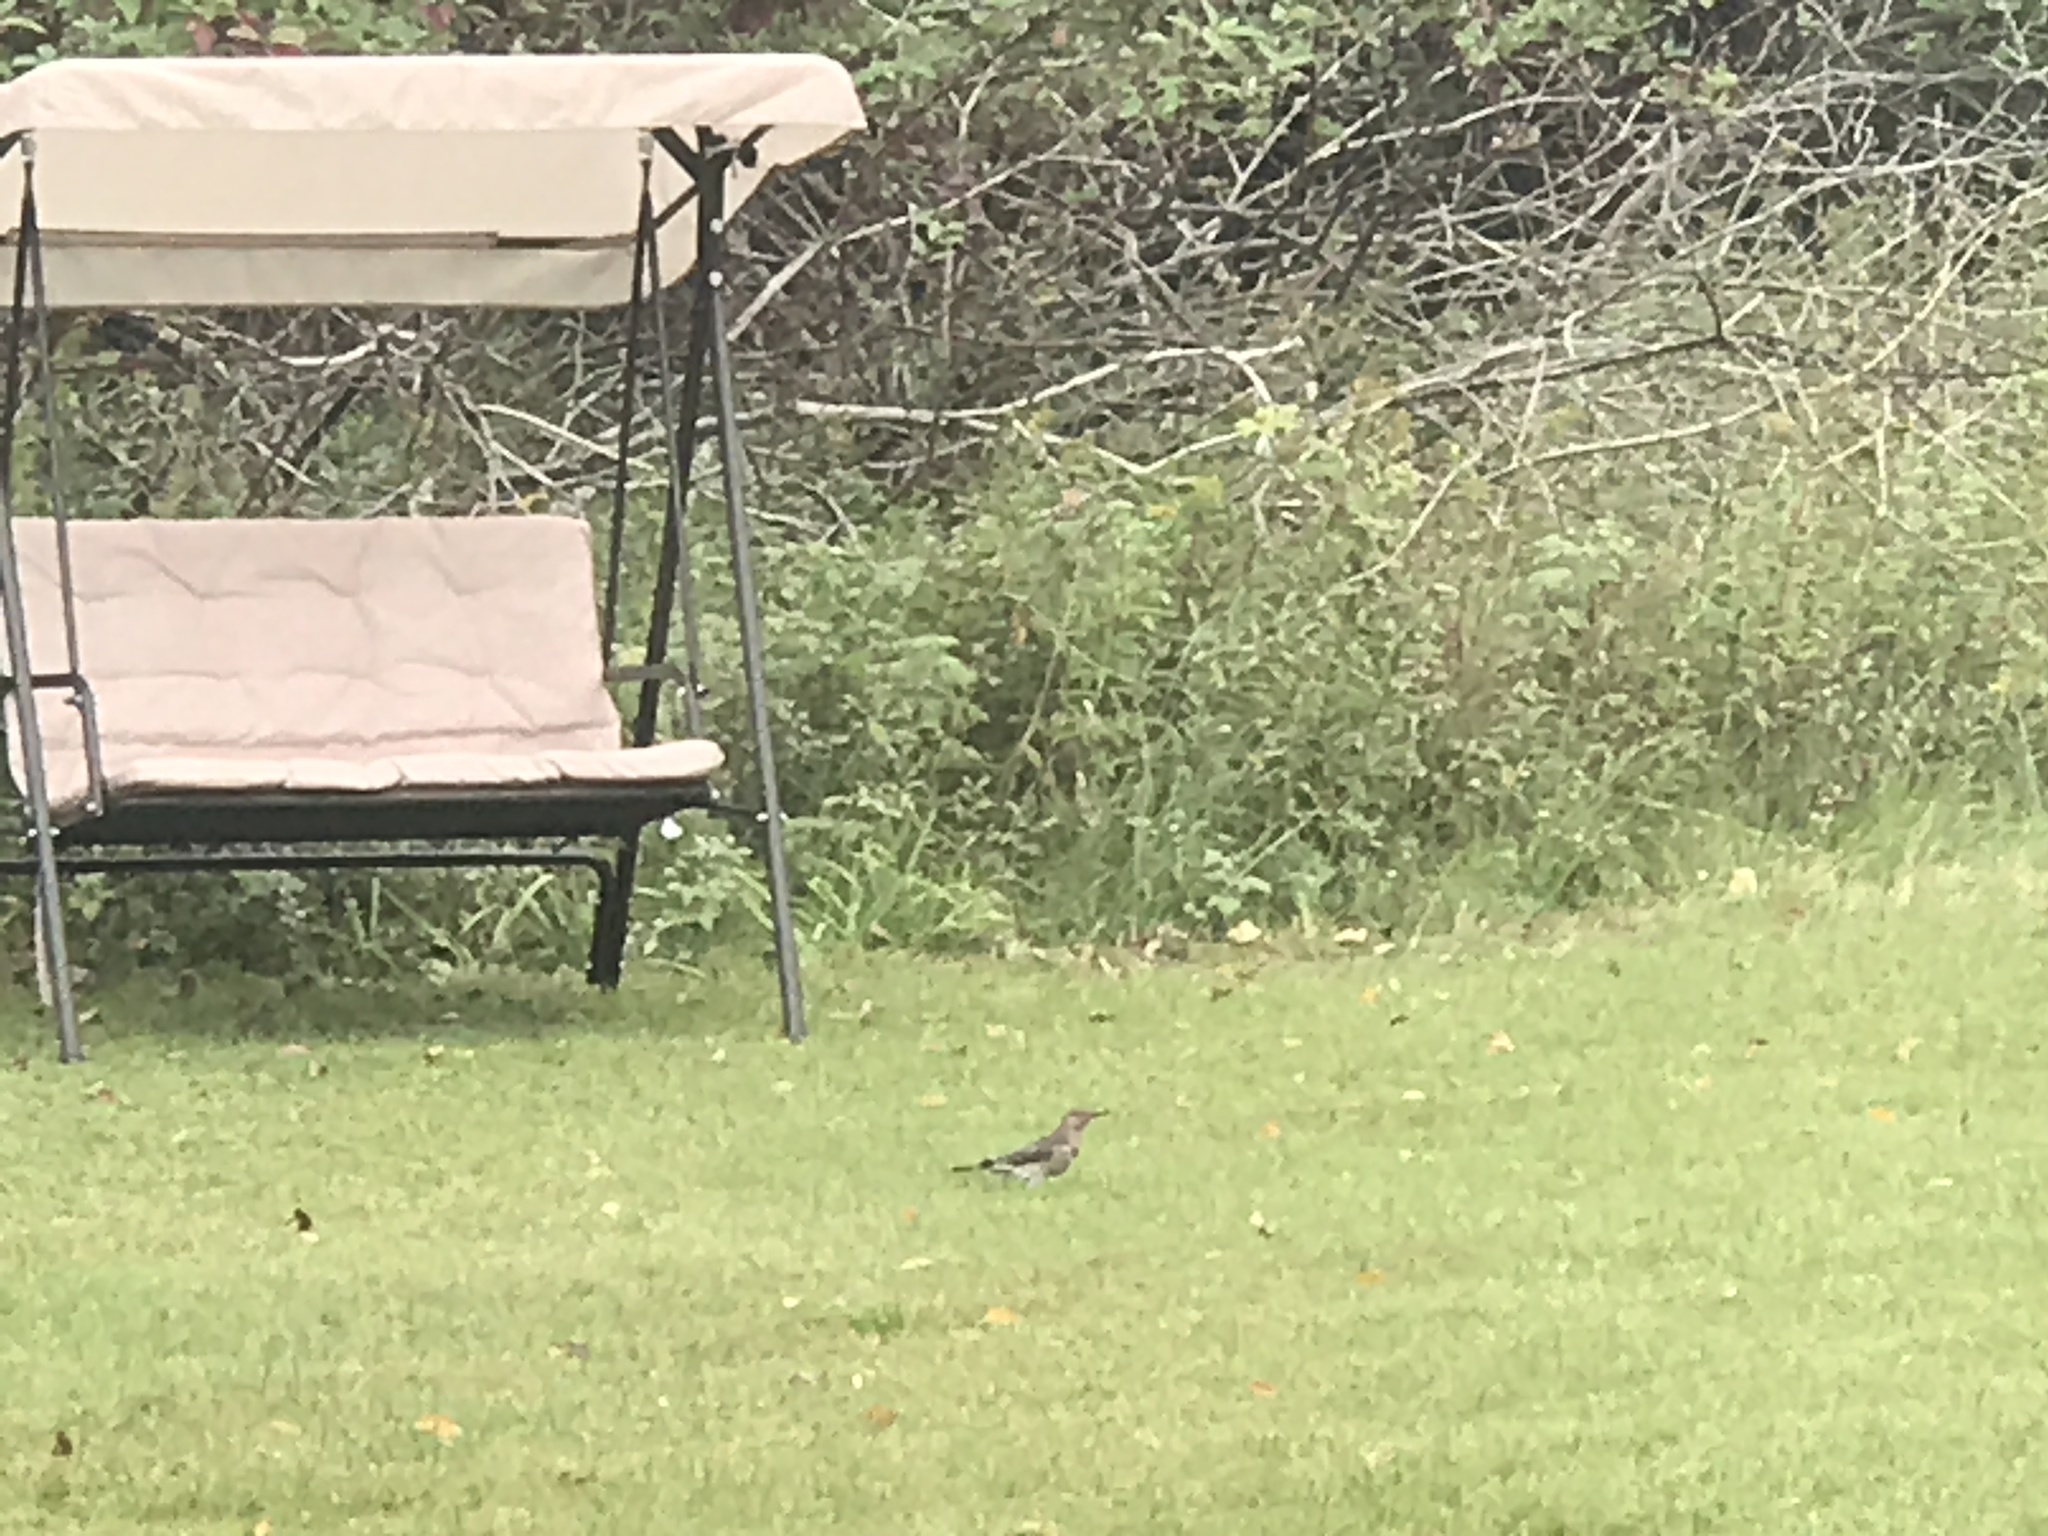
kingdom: Animalia
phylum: Chordata
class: Aves
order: Piciformes
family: Picidae
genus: Colaptes
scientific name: Colaptes auratus
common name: Northern flicker
